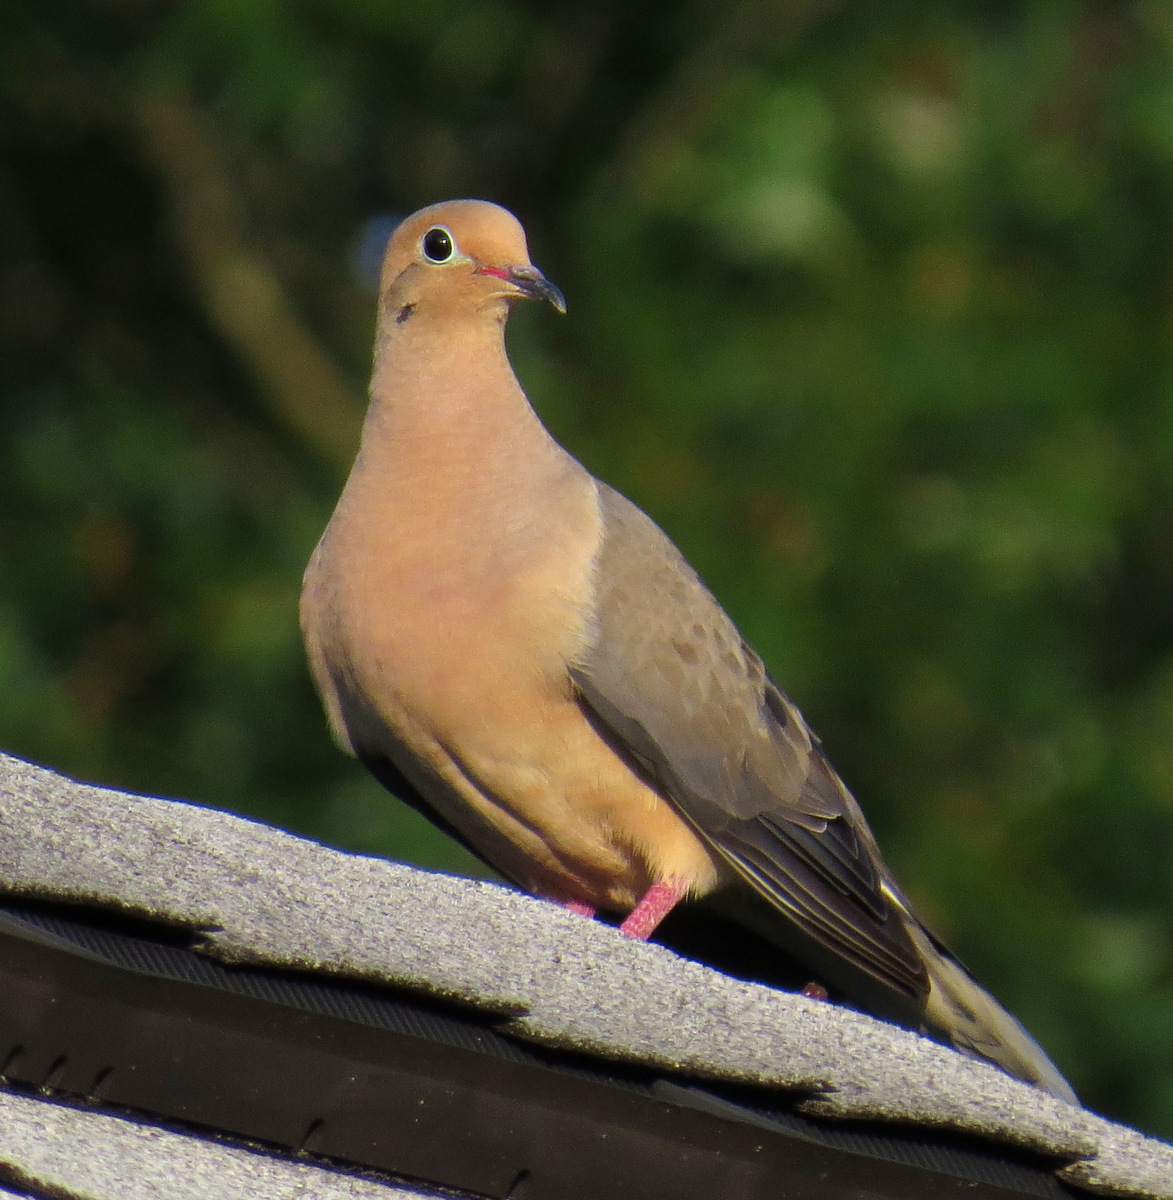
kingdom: Animalia
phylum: Chordata
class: Aves
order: Columbiformes
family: Columbidae
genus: Zenaida
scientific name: Zenaida macroura
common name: Mourning dove
